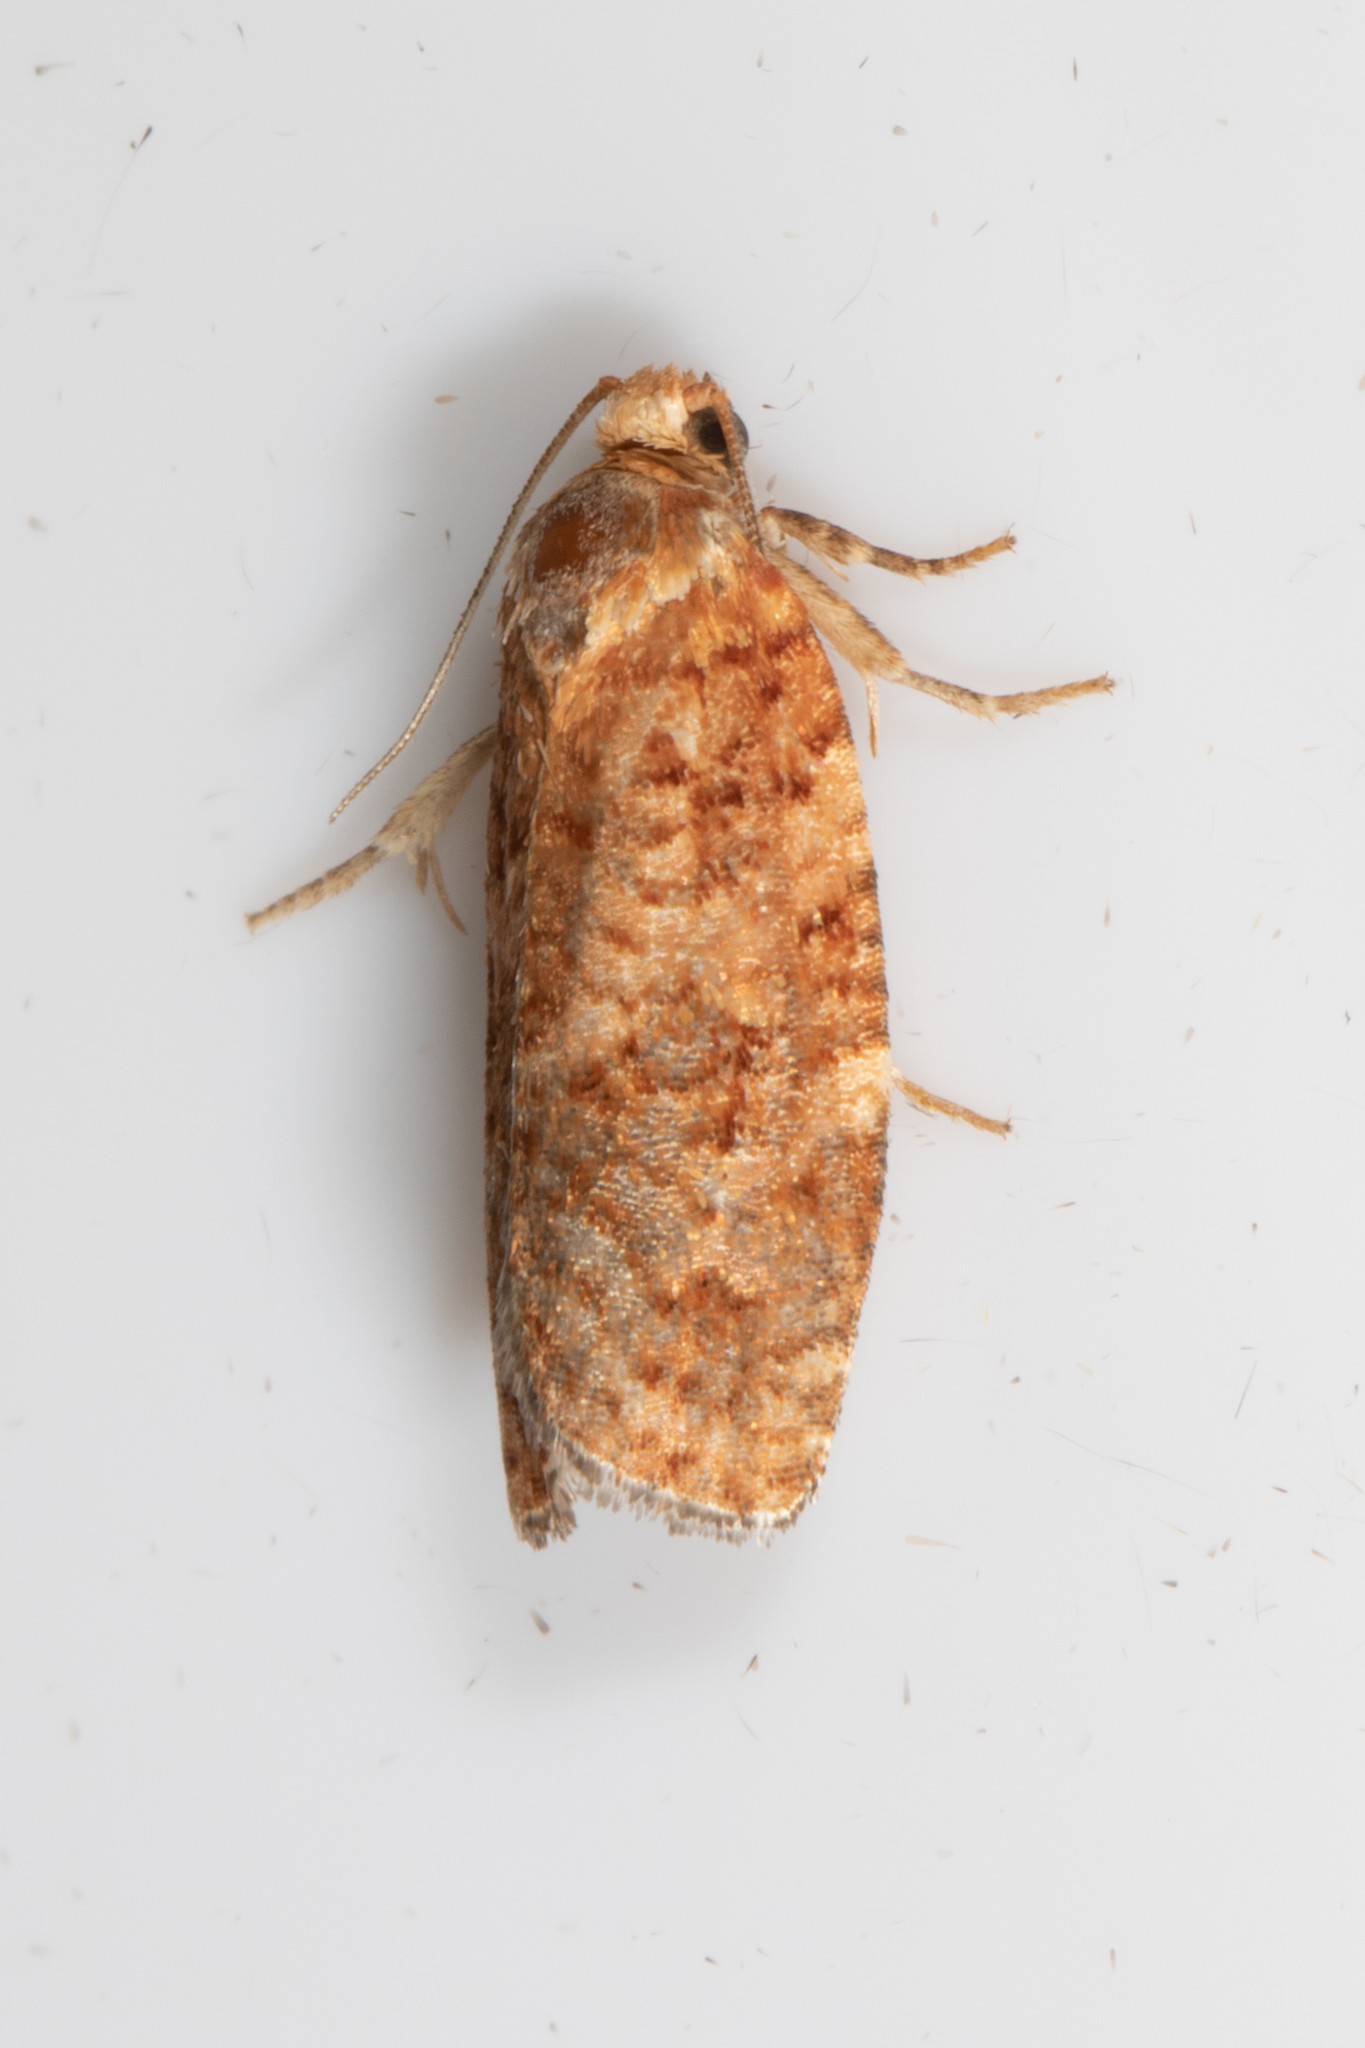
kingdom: Animalia
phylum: Arthropoda
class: Insecta
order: Lepidoptera
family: Tortricidae
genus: Choristoneura
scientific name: Choristoneura pinus
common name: Jack pine budworm
